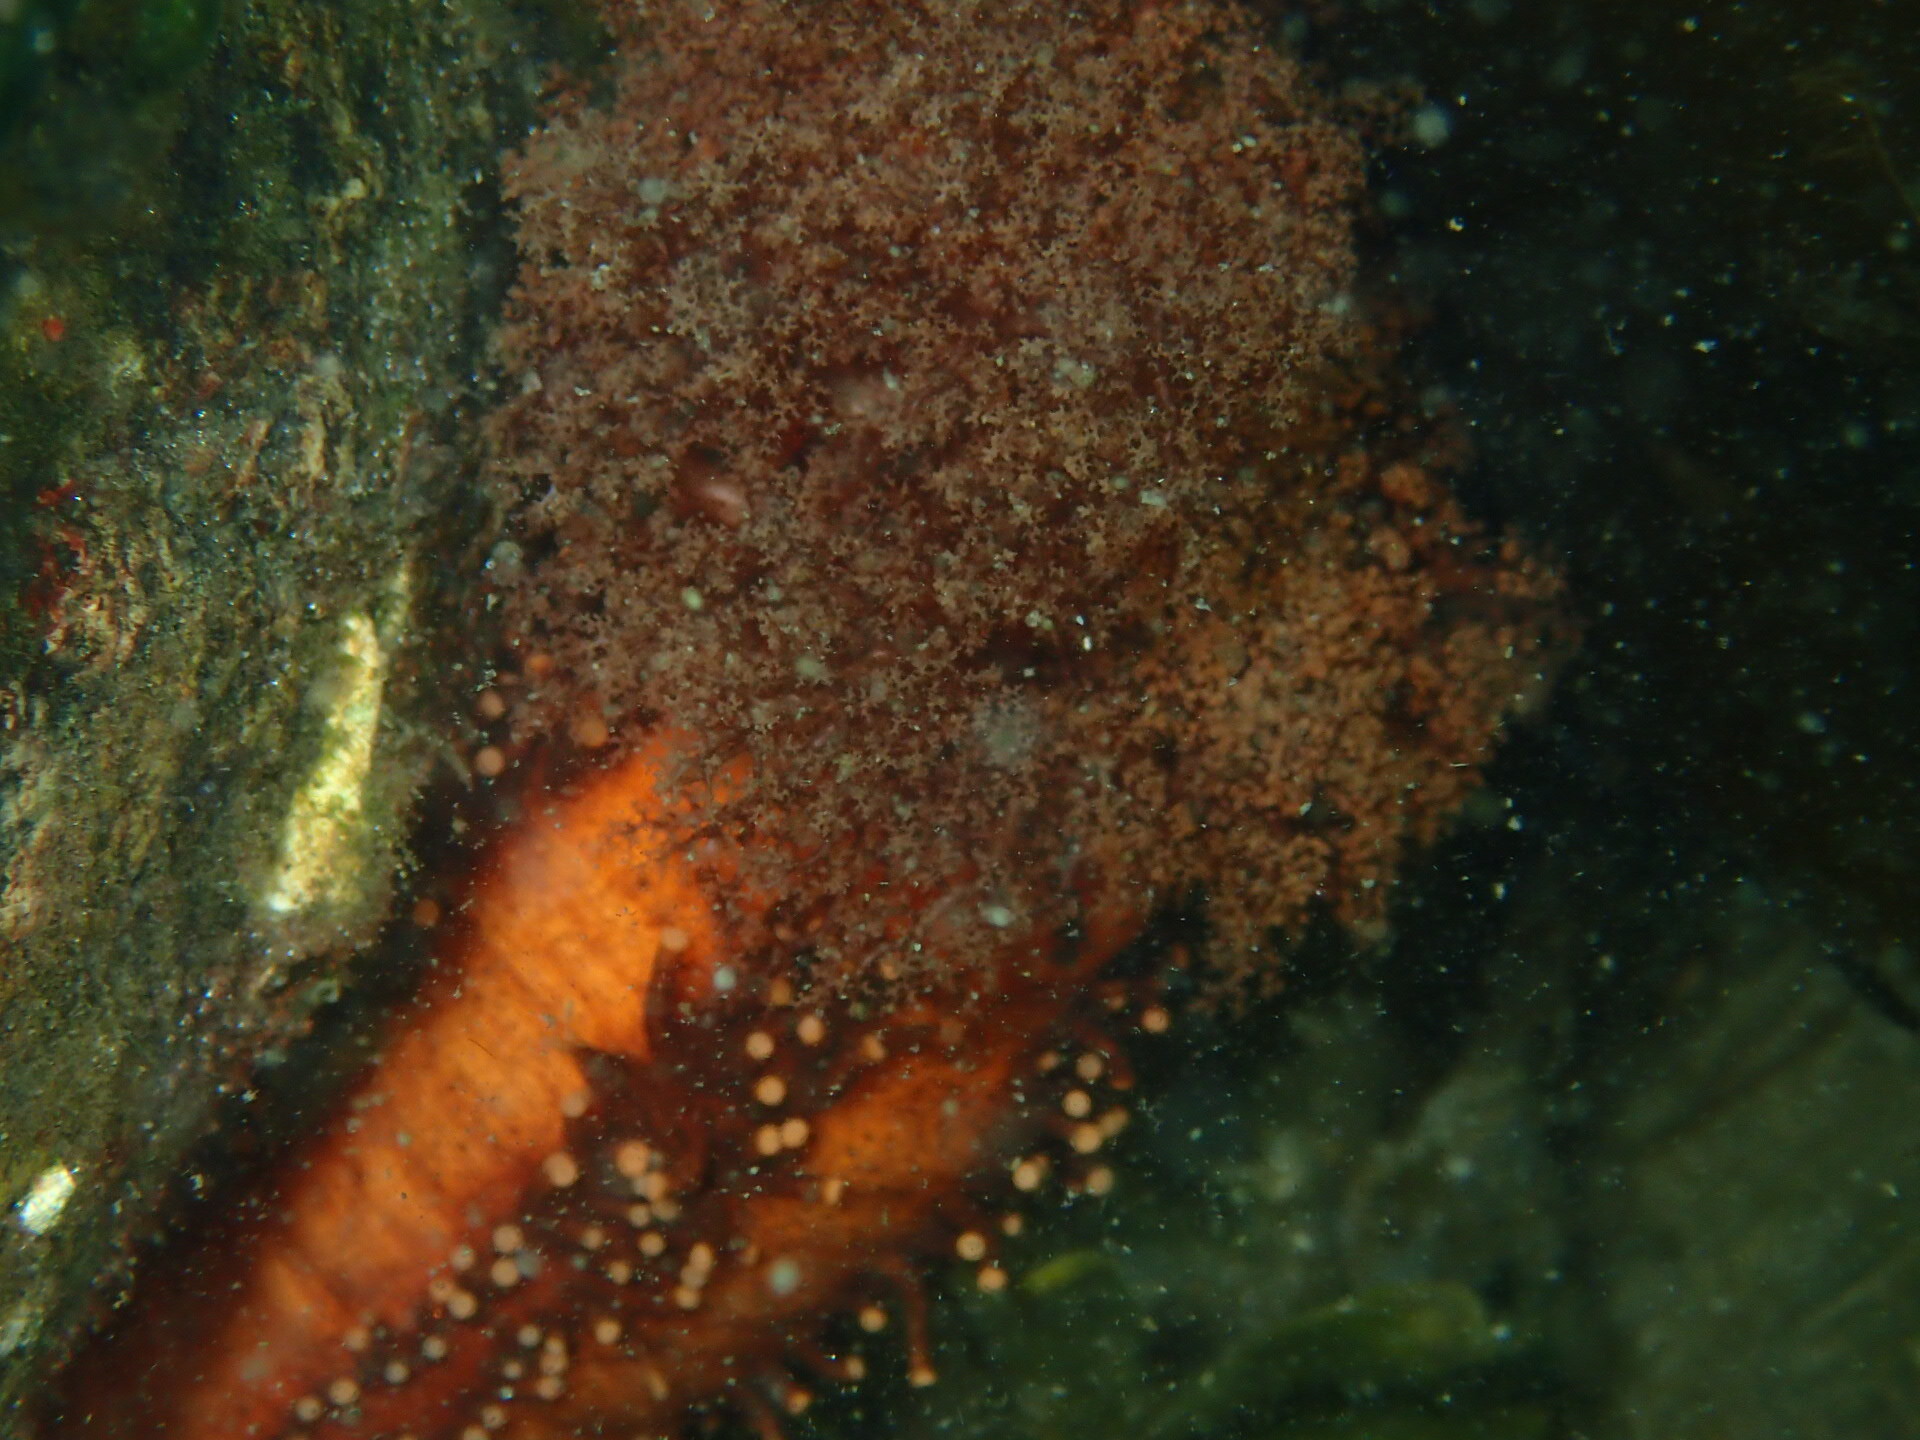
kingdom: Animalia
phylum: Echinodermata
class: Holothuroidea
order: Dendrochirotida
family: Cucumariidae
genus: Cucumaria
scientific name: Cucumaria miniata
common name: Orange sea cucumber
